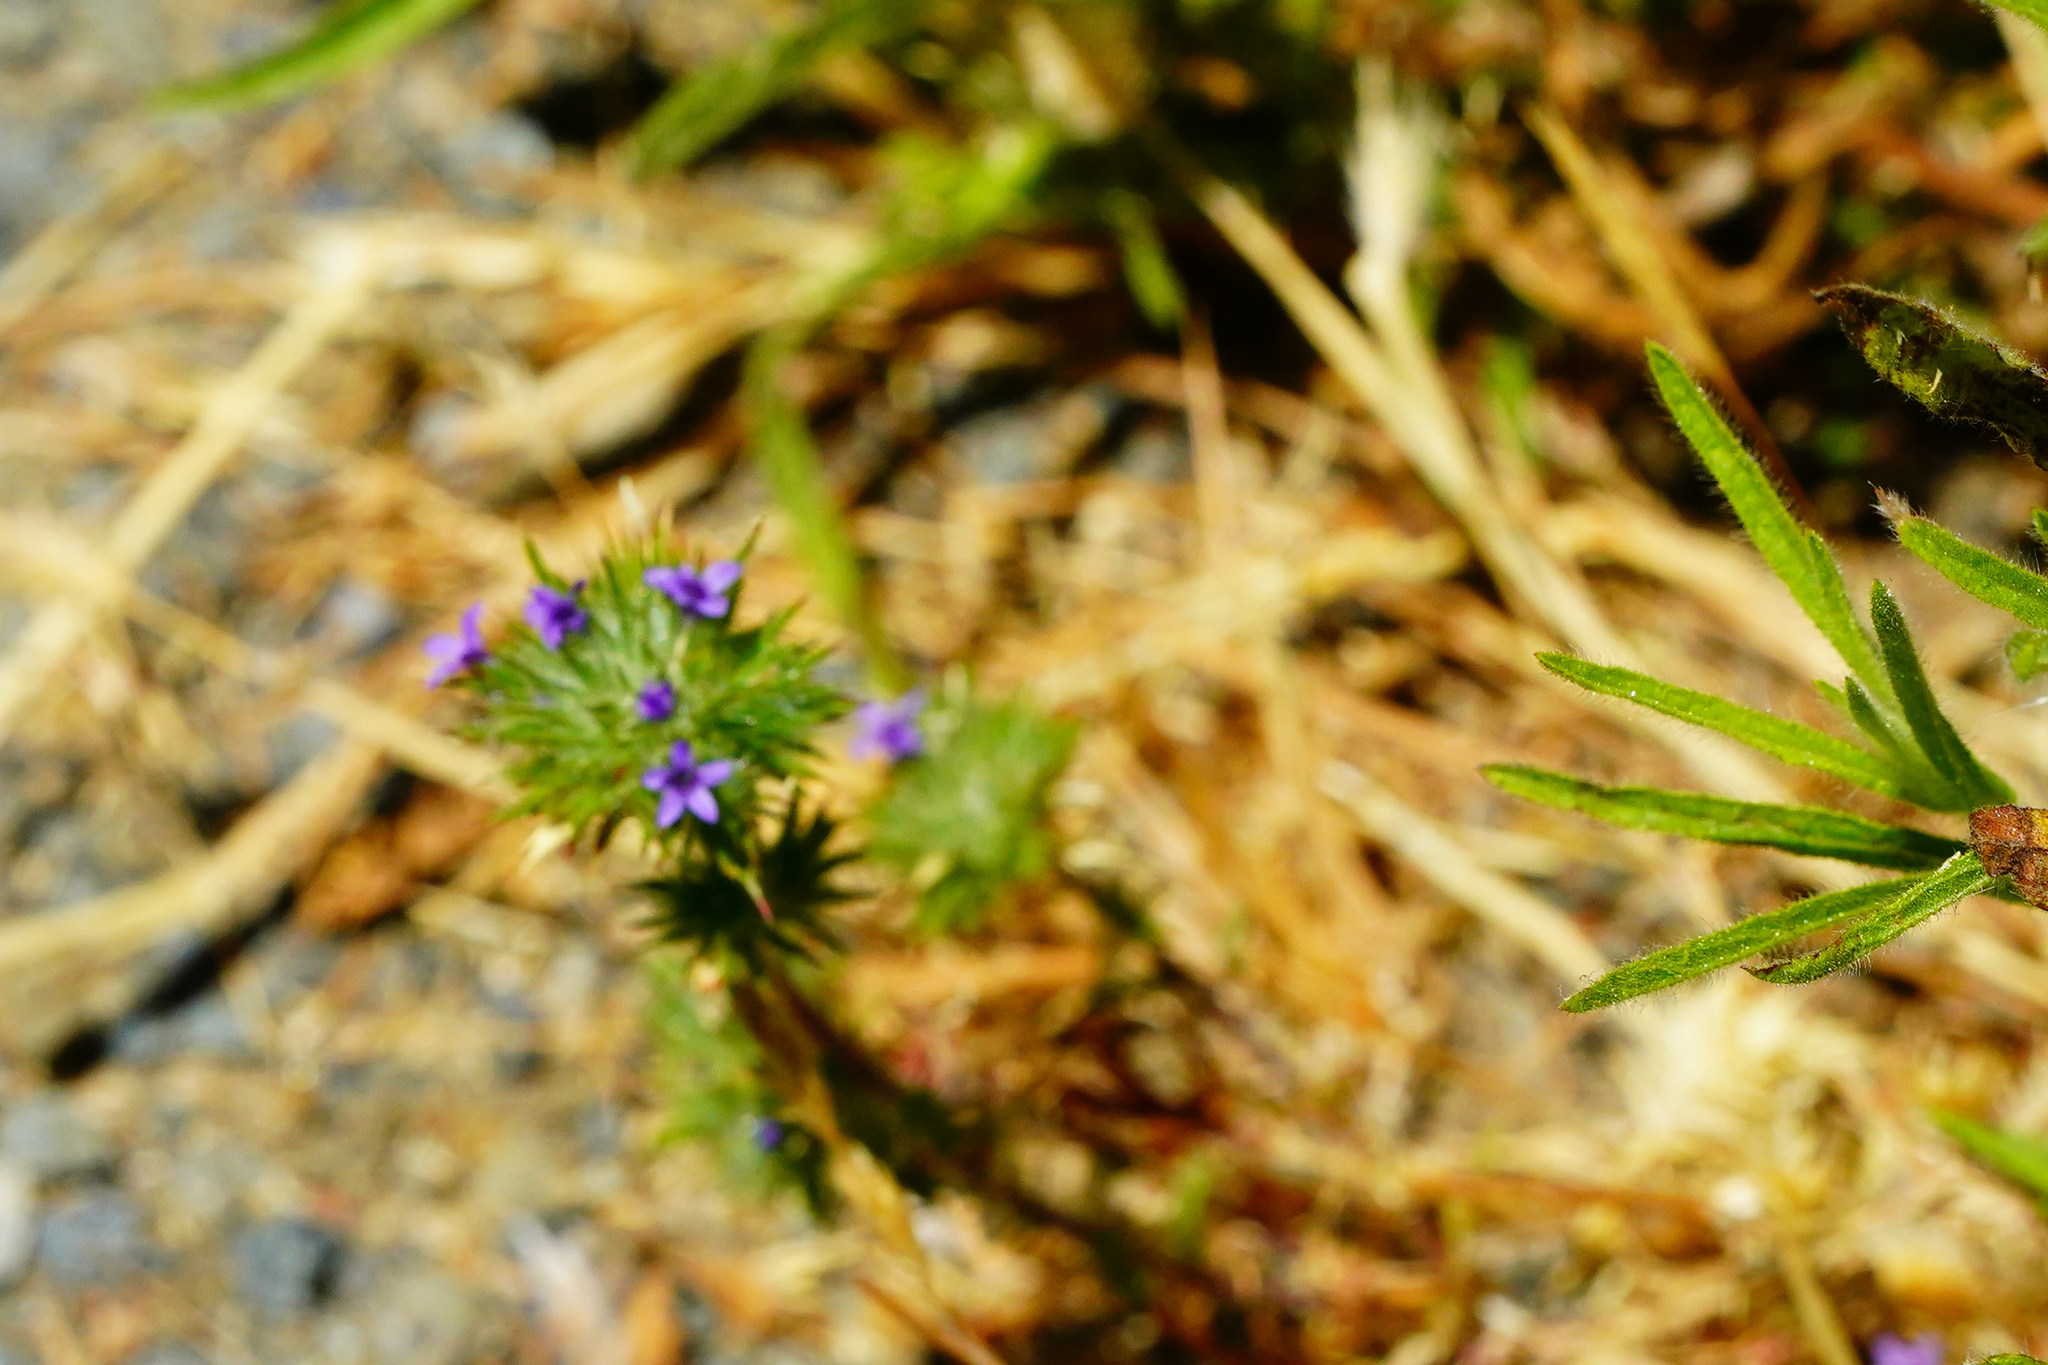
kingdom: Plantae
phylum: Tracheophyta
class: Magnoliopsida
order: Ericales
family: Polemoniaceae
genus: Navarretia
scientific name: Navarretia squarrosa
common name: Skunkweed
